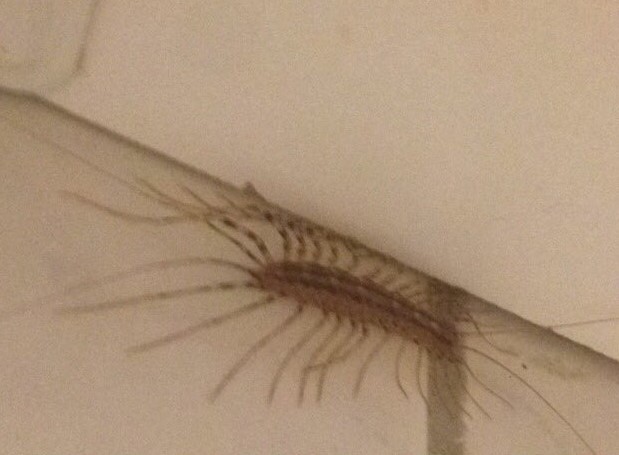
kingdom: Animalia
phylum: Arthropoda
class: Chilopoda
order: Scutigeromorpha
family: Scutigeridae
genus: Scutigera
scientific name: Scutigera coleoptrata
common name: House centipede
